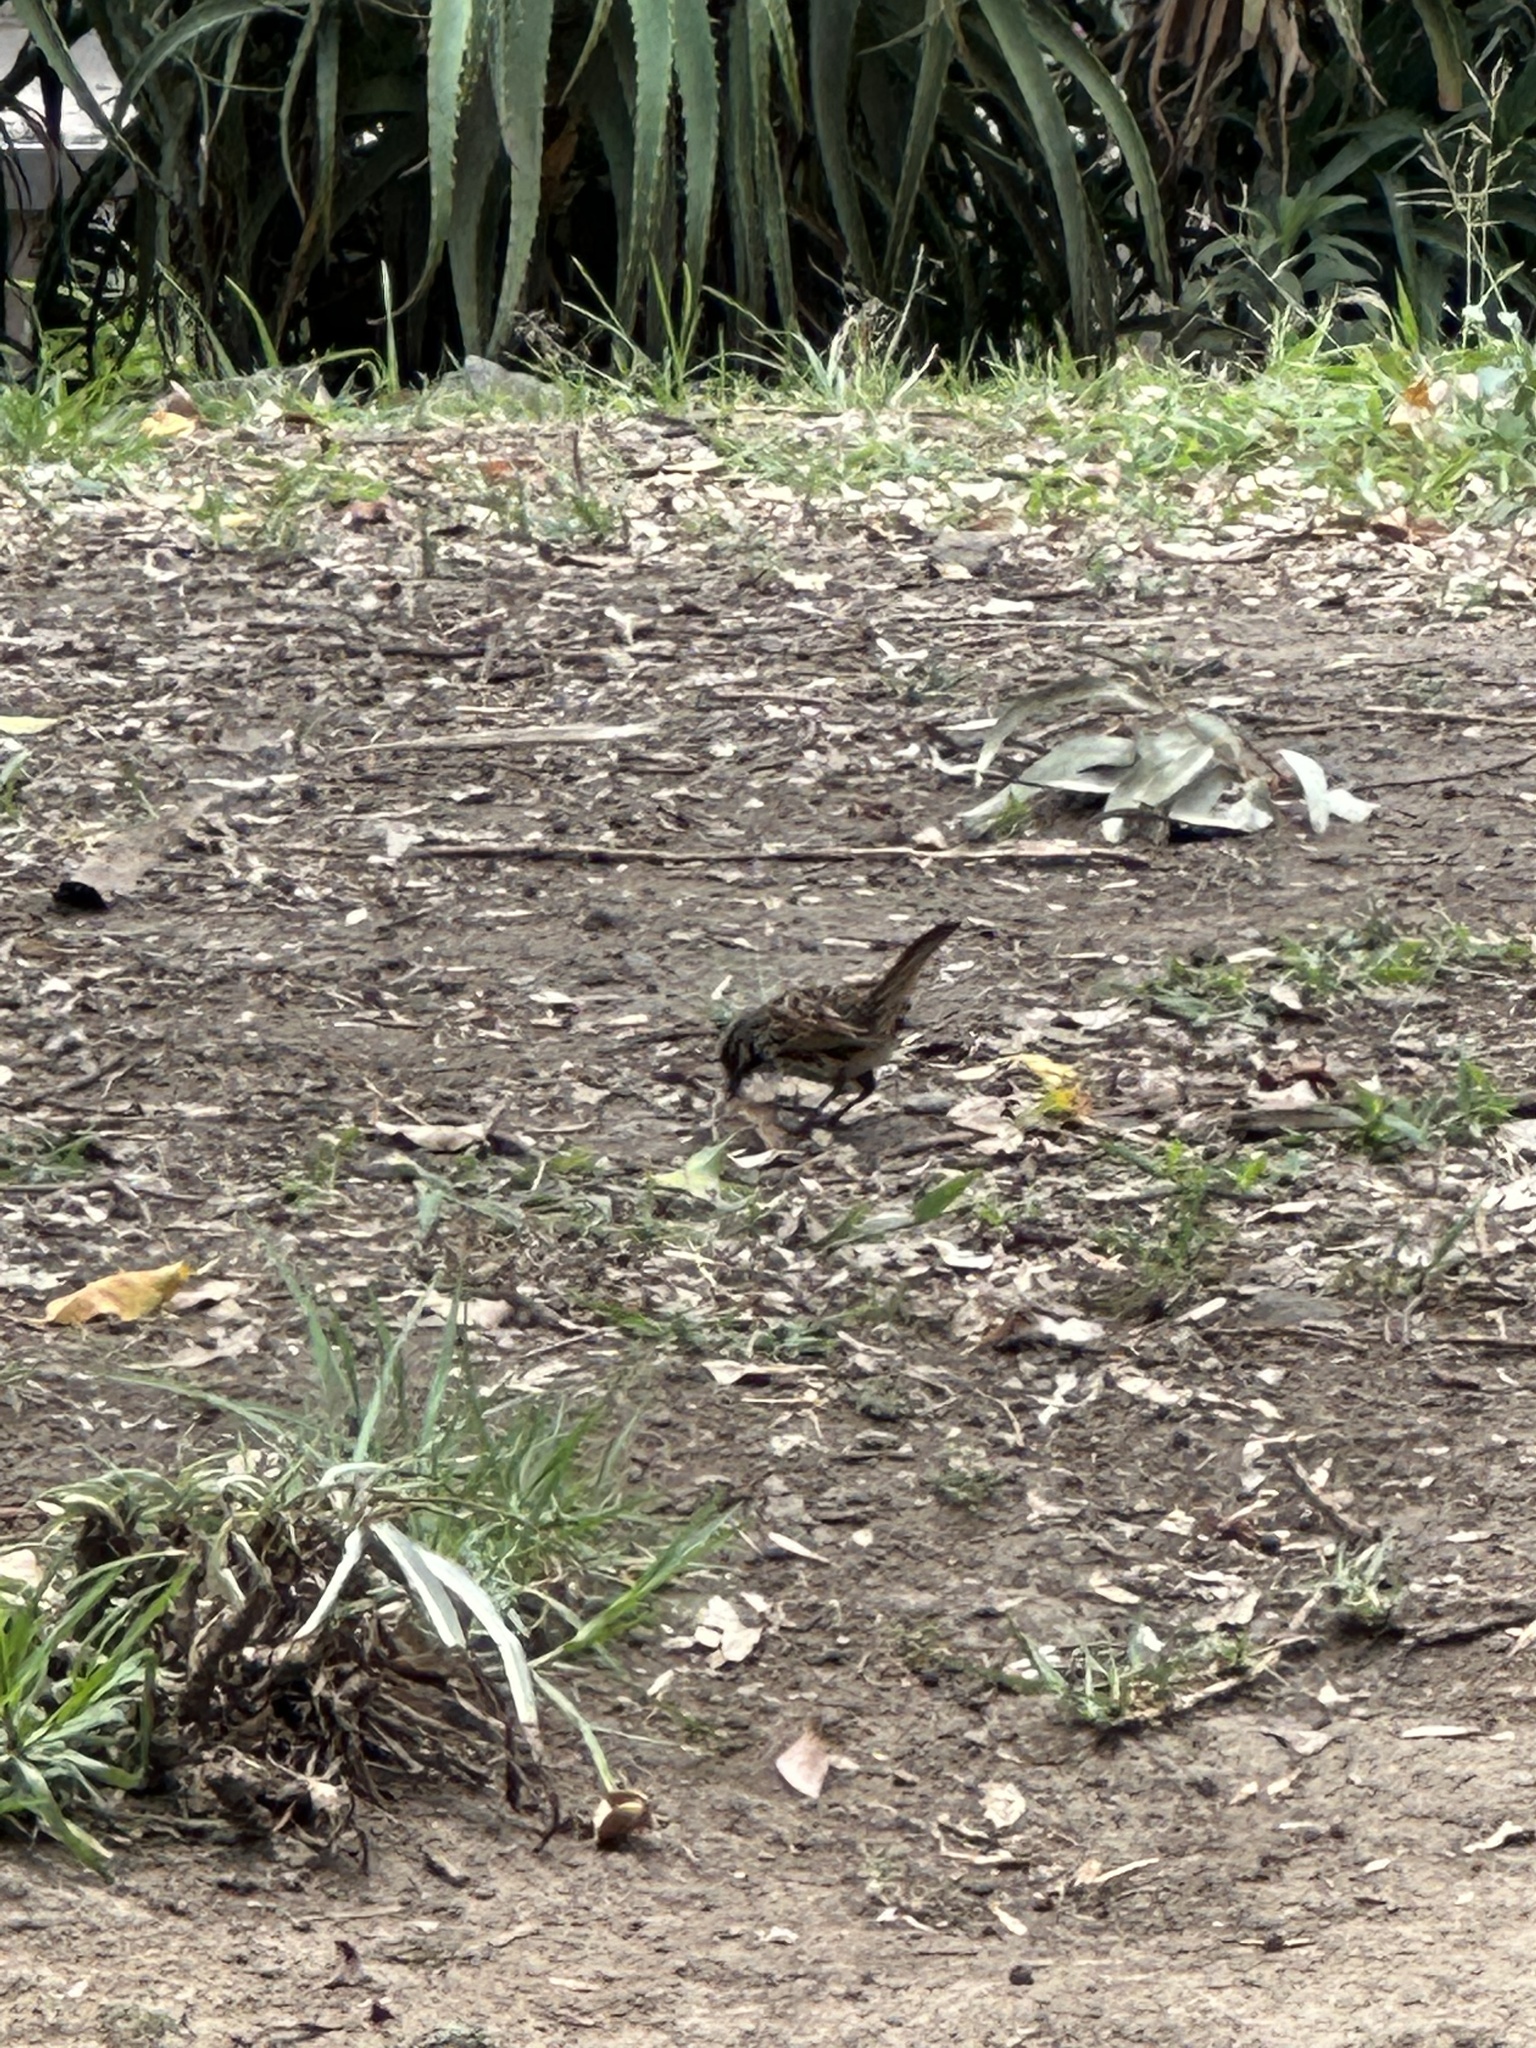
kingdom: Animalia
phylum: Chordata
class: Aves
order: Passeriformes
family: Passerellidae
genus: Melospiza
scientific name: Melospiza lincolnii
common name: Lincoln's sparrow
